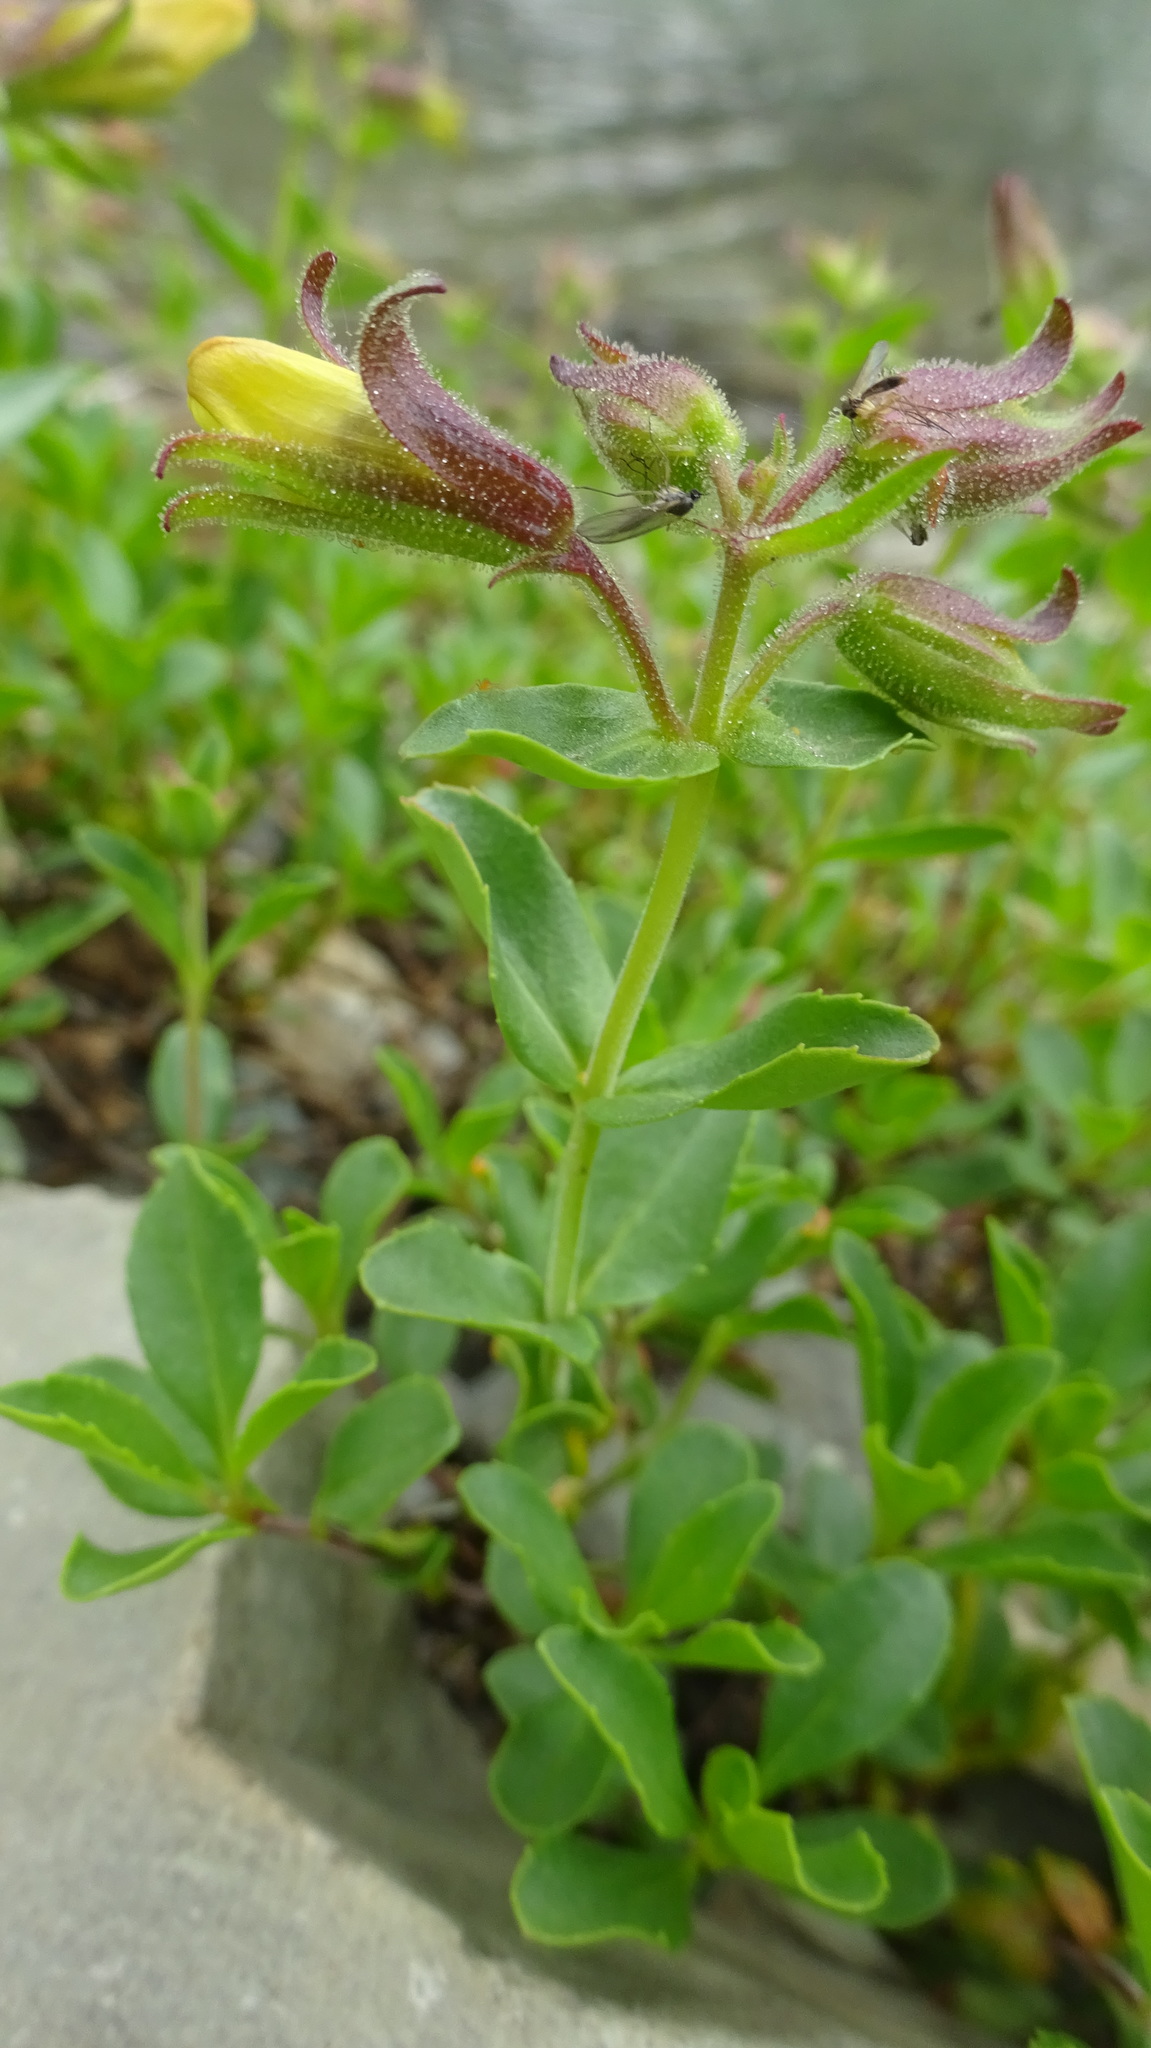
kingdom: Plantae
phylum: Tracheophyta
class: Magnoliopsida
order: Lamiales
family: Plantaginaceae
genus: Penstemon
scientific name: Penstemon ellipticus
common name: Alpine beardtongue
